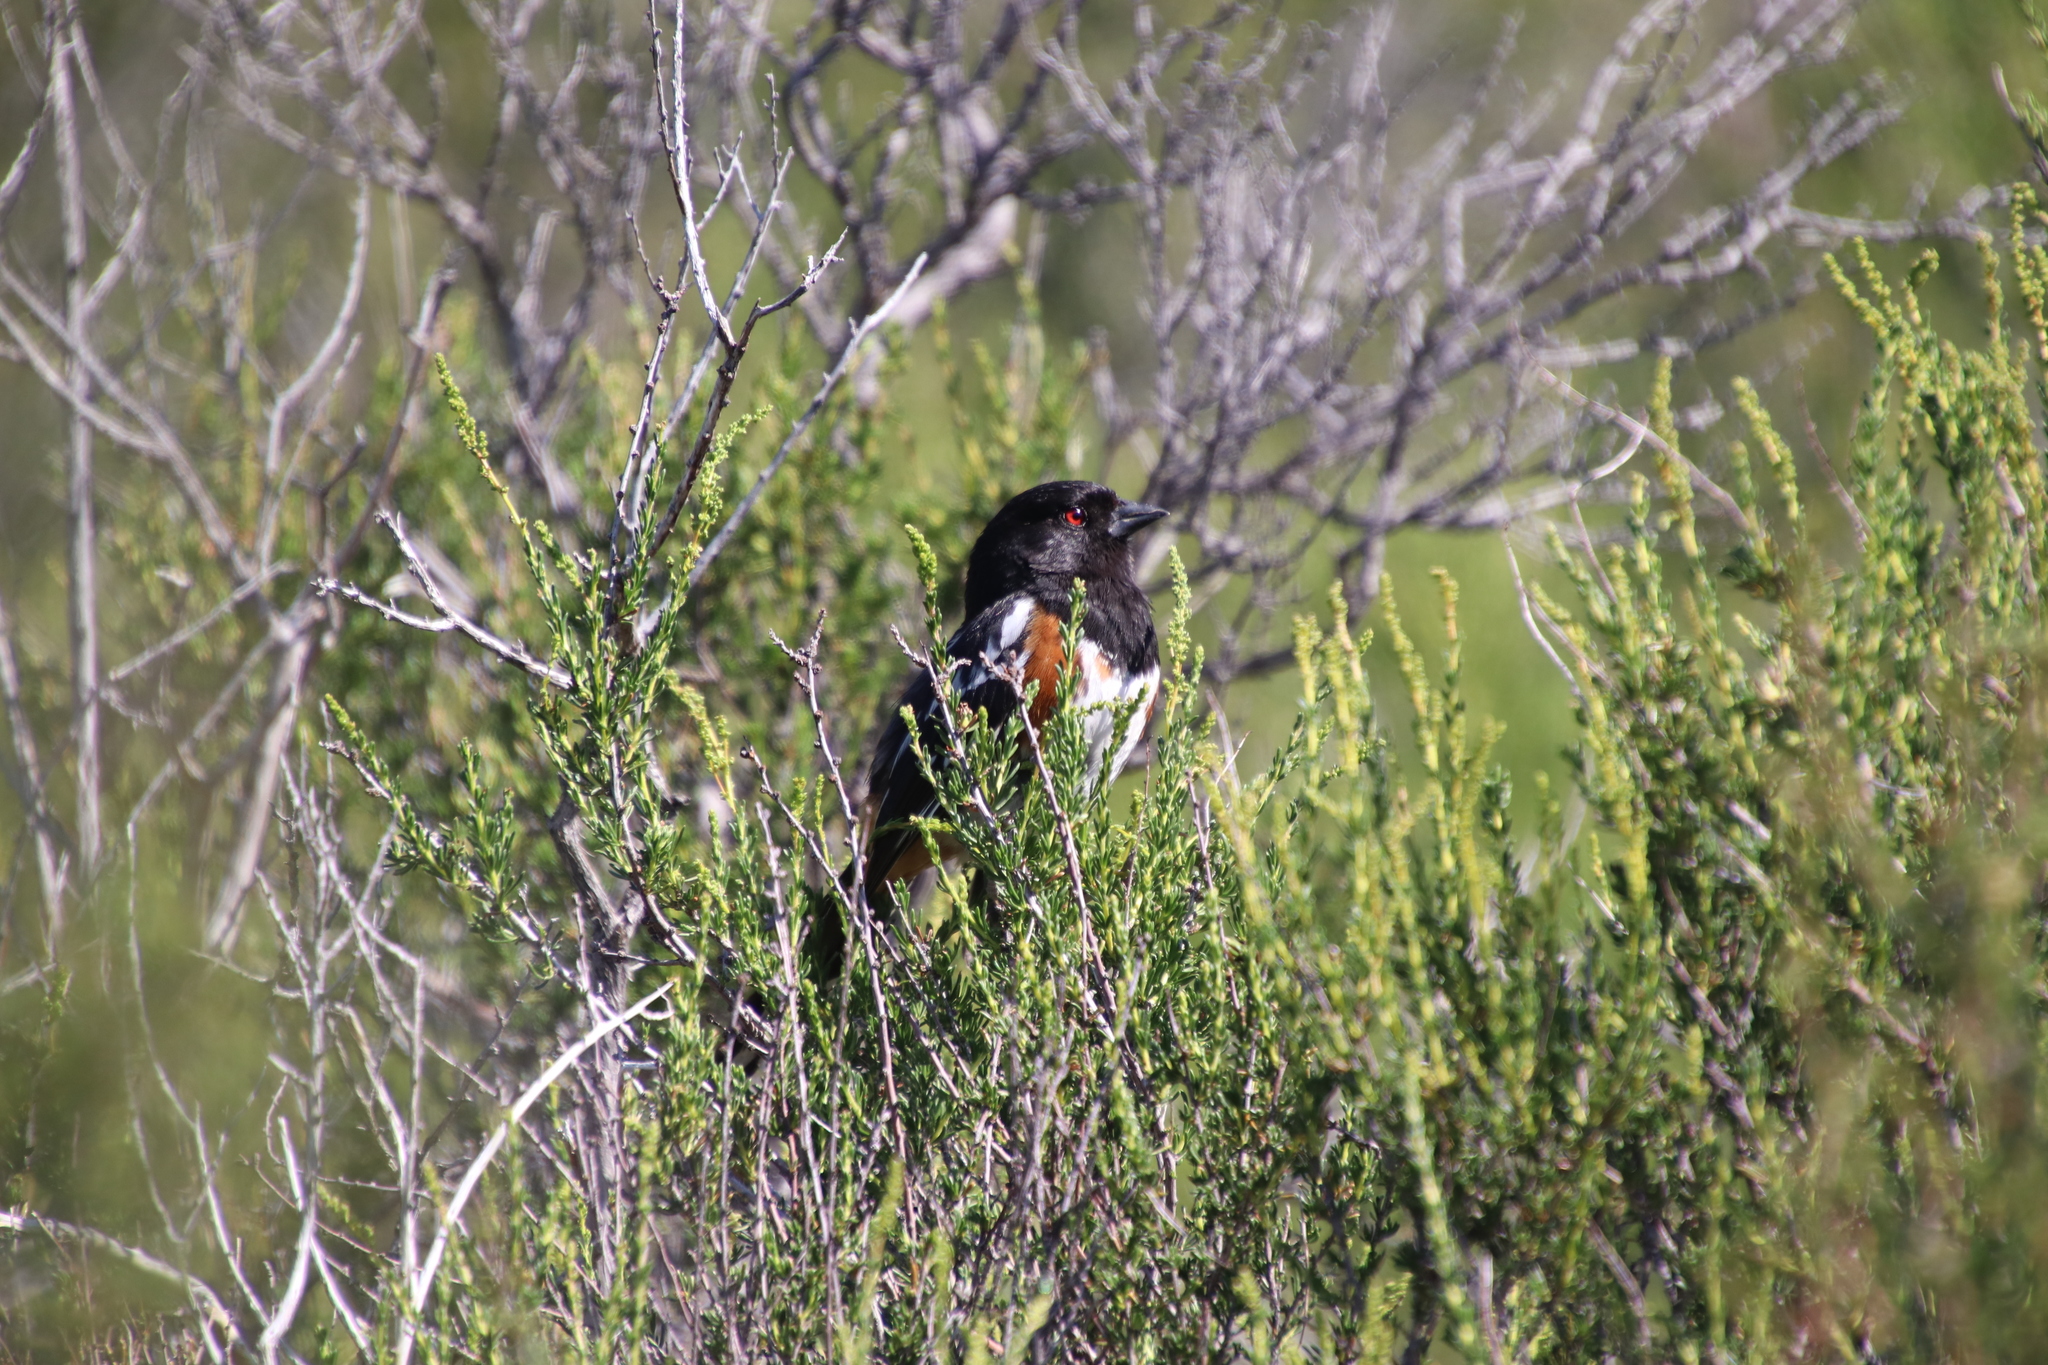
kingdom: Animalia
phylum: Chordata
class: Aves
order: Passeriformes
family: Passerellidae
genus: Pipilo
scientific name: Pipilo maculatus
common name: Spotted towhee
